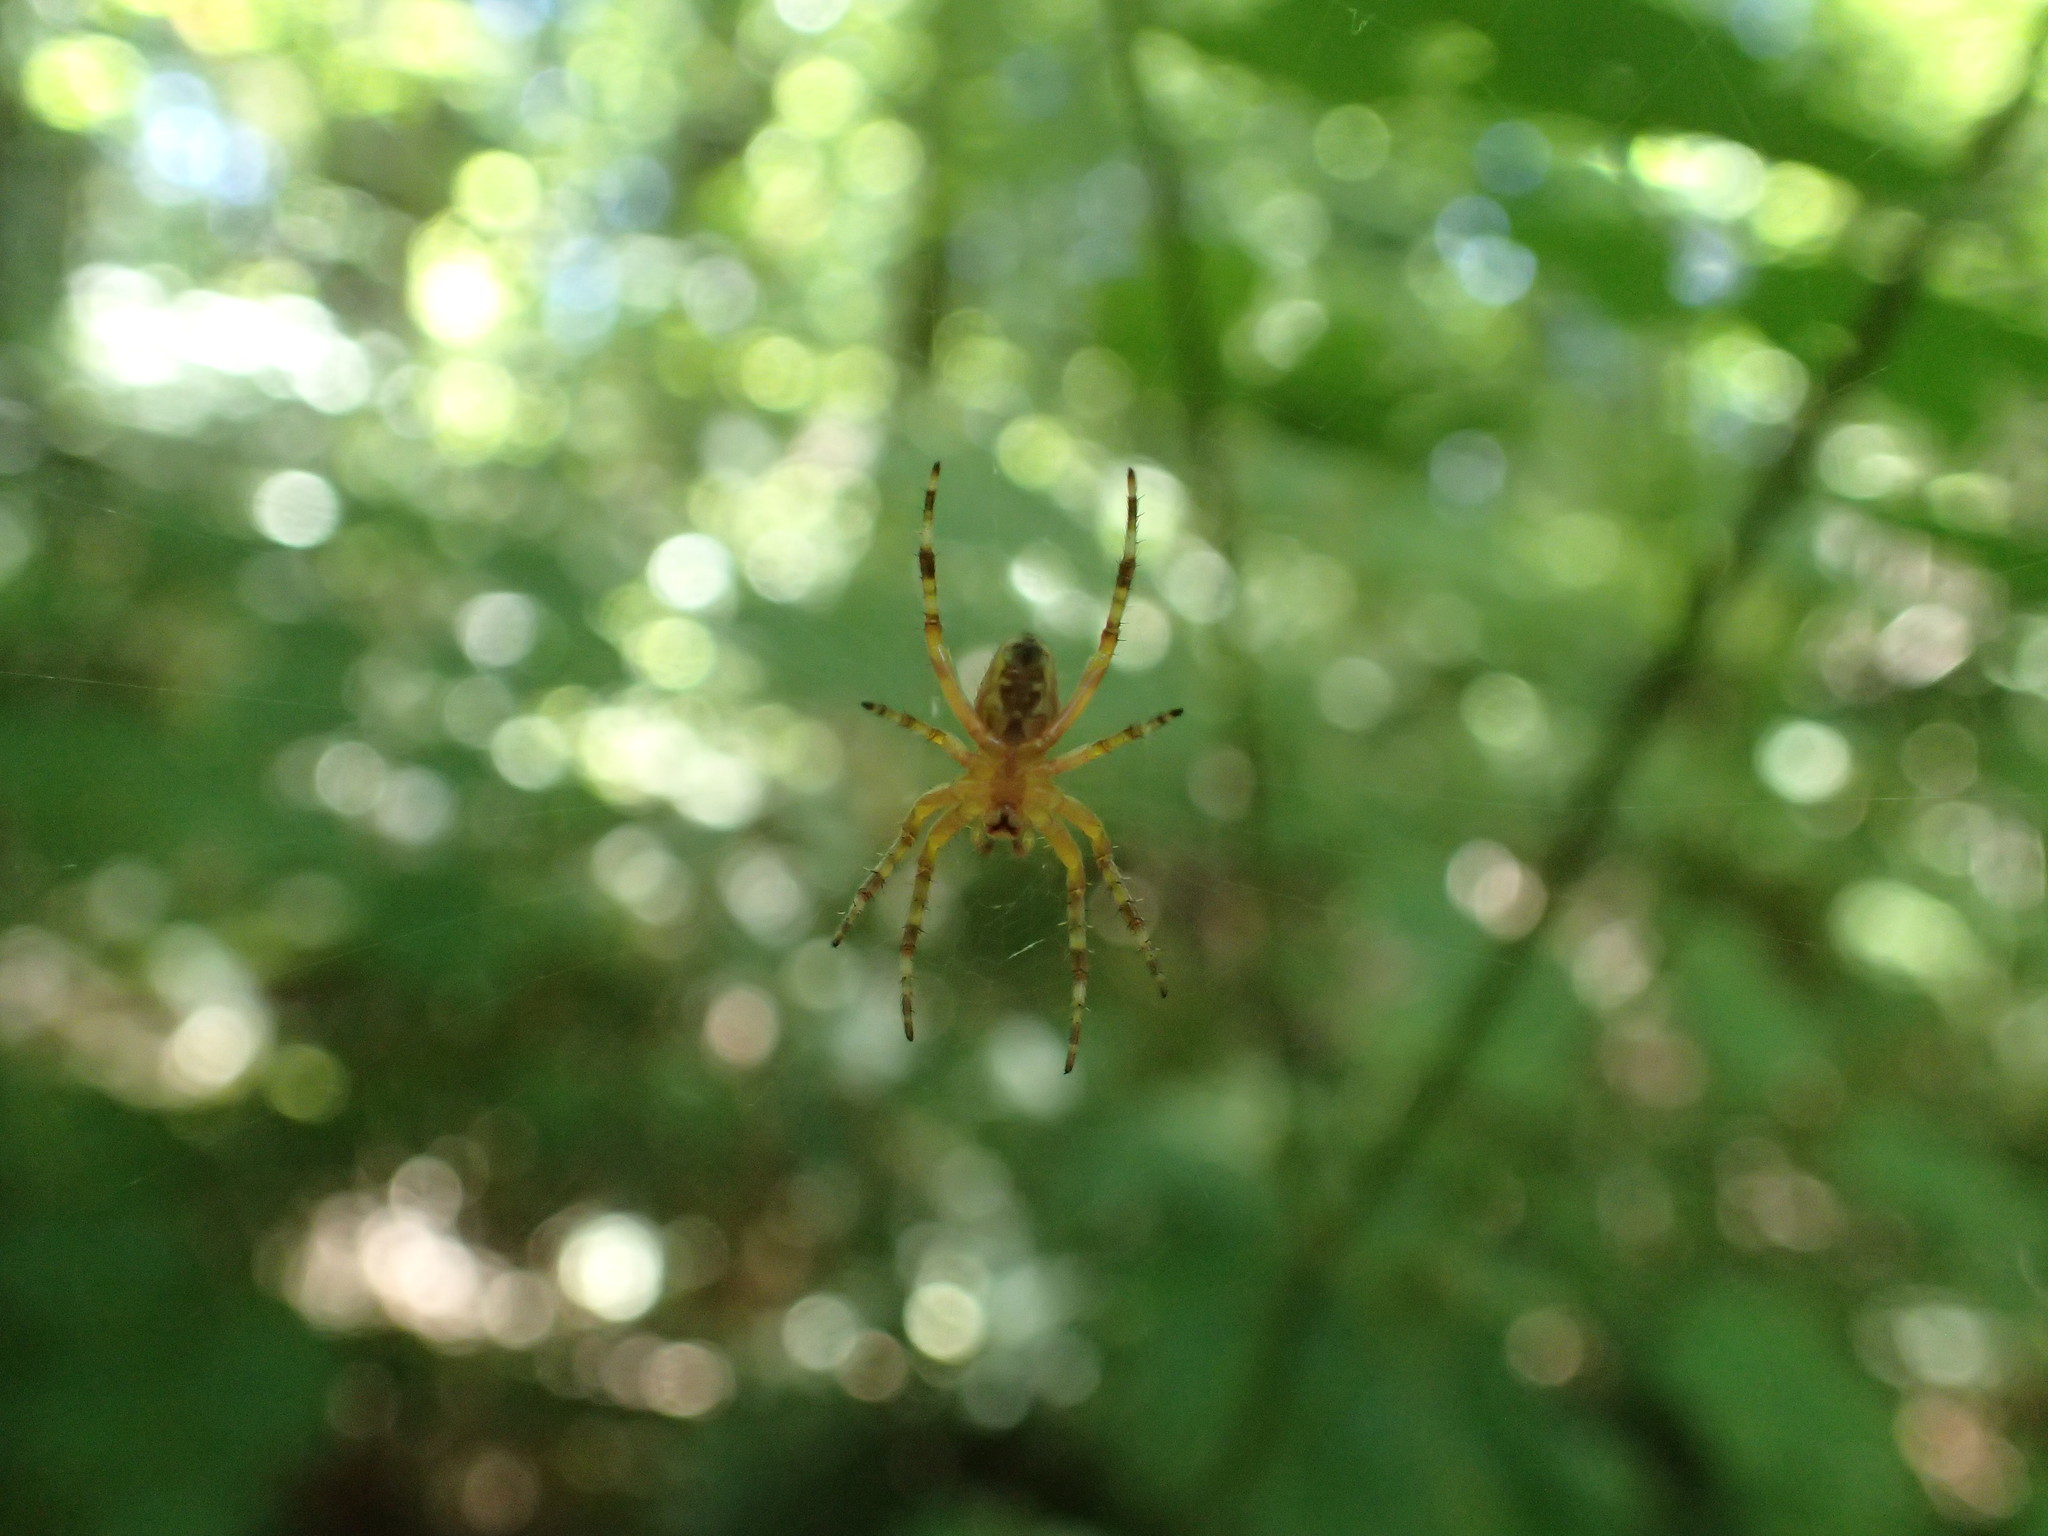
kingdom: Animalia
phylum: Arthropoda
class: Arachnida
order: Araneae
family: Araneidae
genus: Araneus
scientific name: Araneus diadematus
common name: Cross orbweaver
